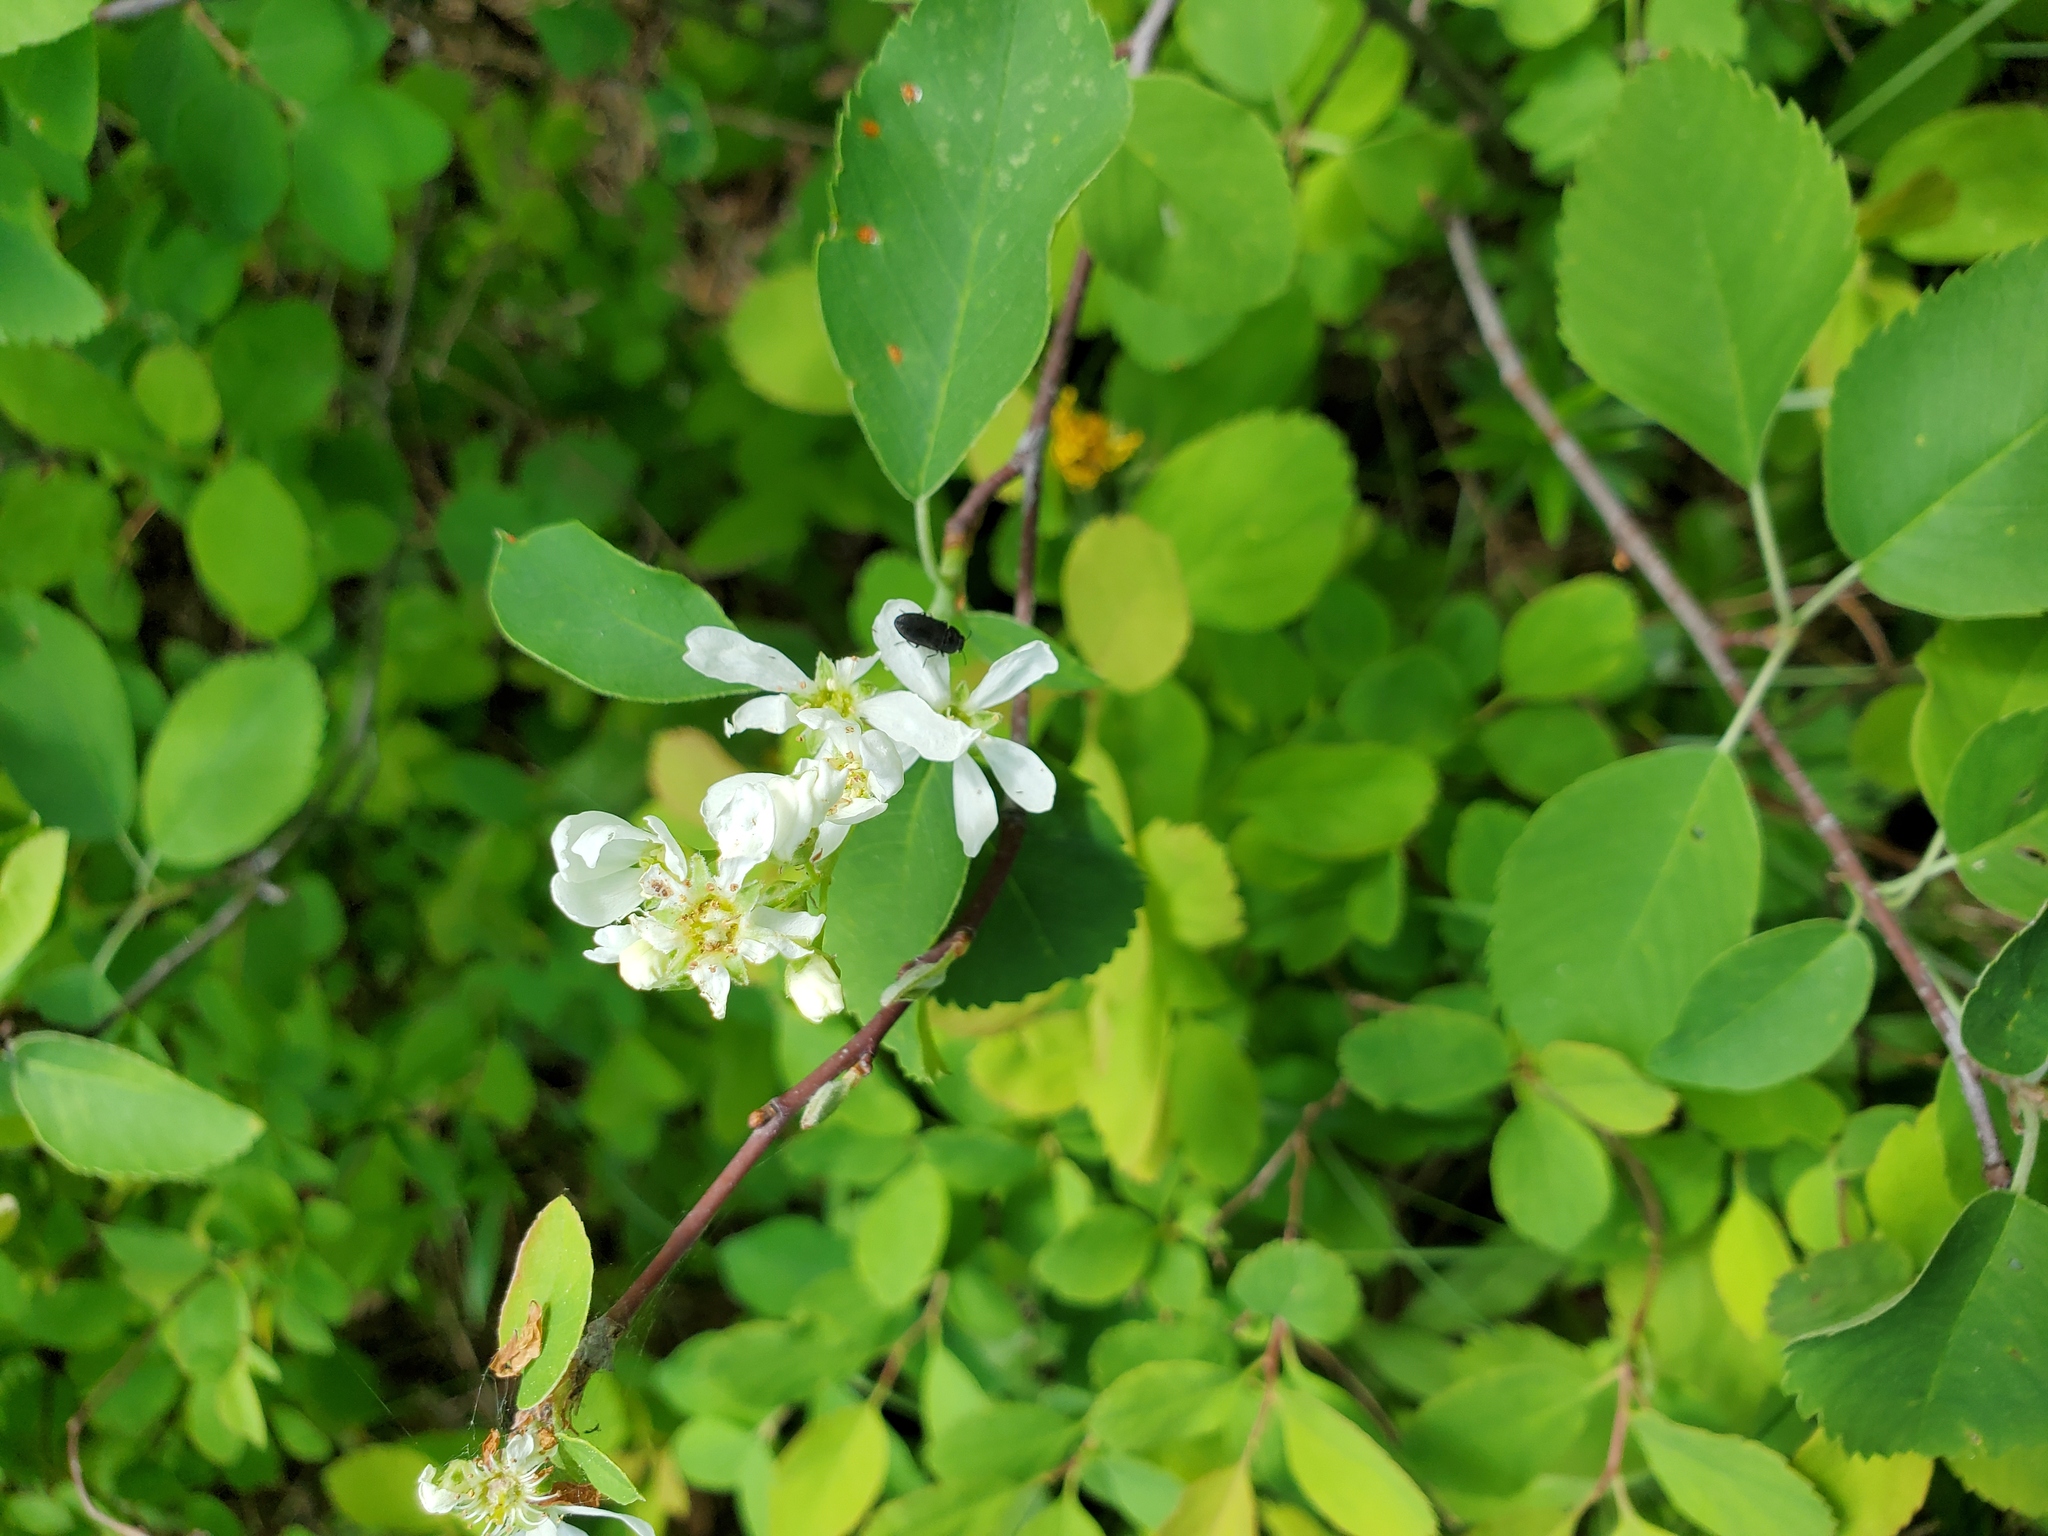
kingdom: Plantae
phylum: Tracheophyta
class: Magnoliopsida
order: Rosales
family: Rosaceae
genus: Amelanchier
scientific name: Amelanchier alnifolia
